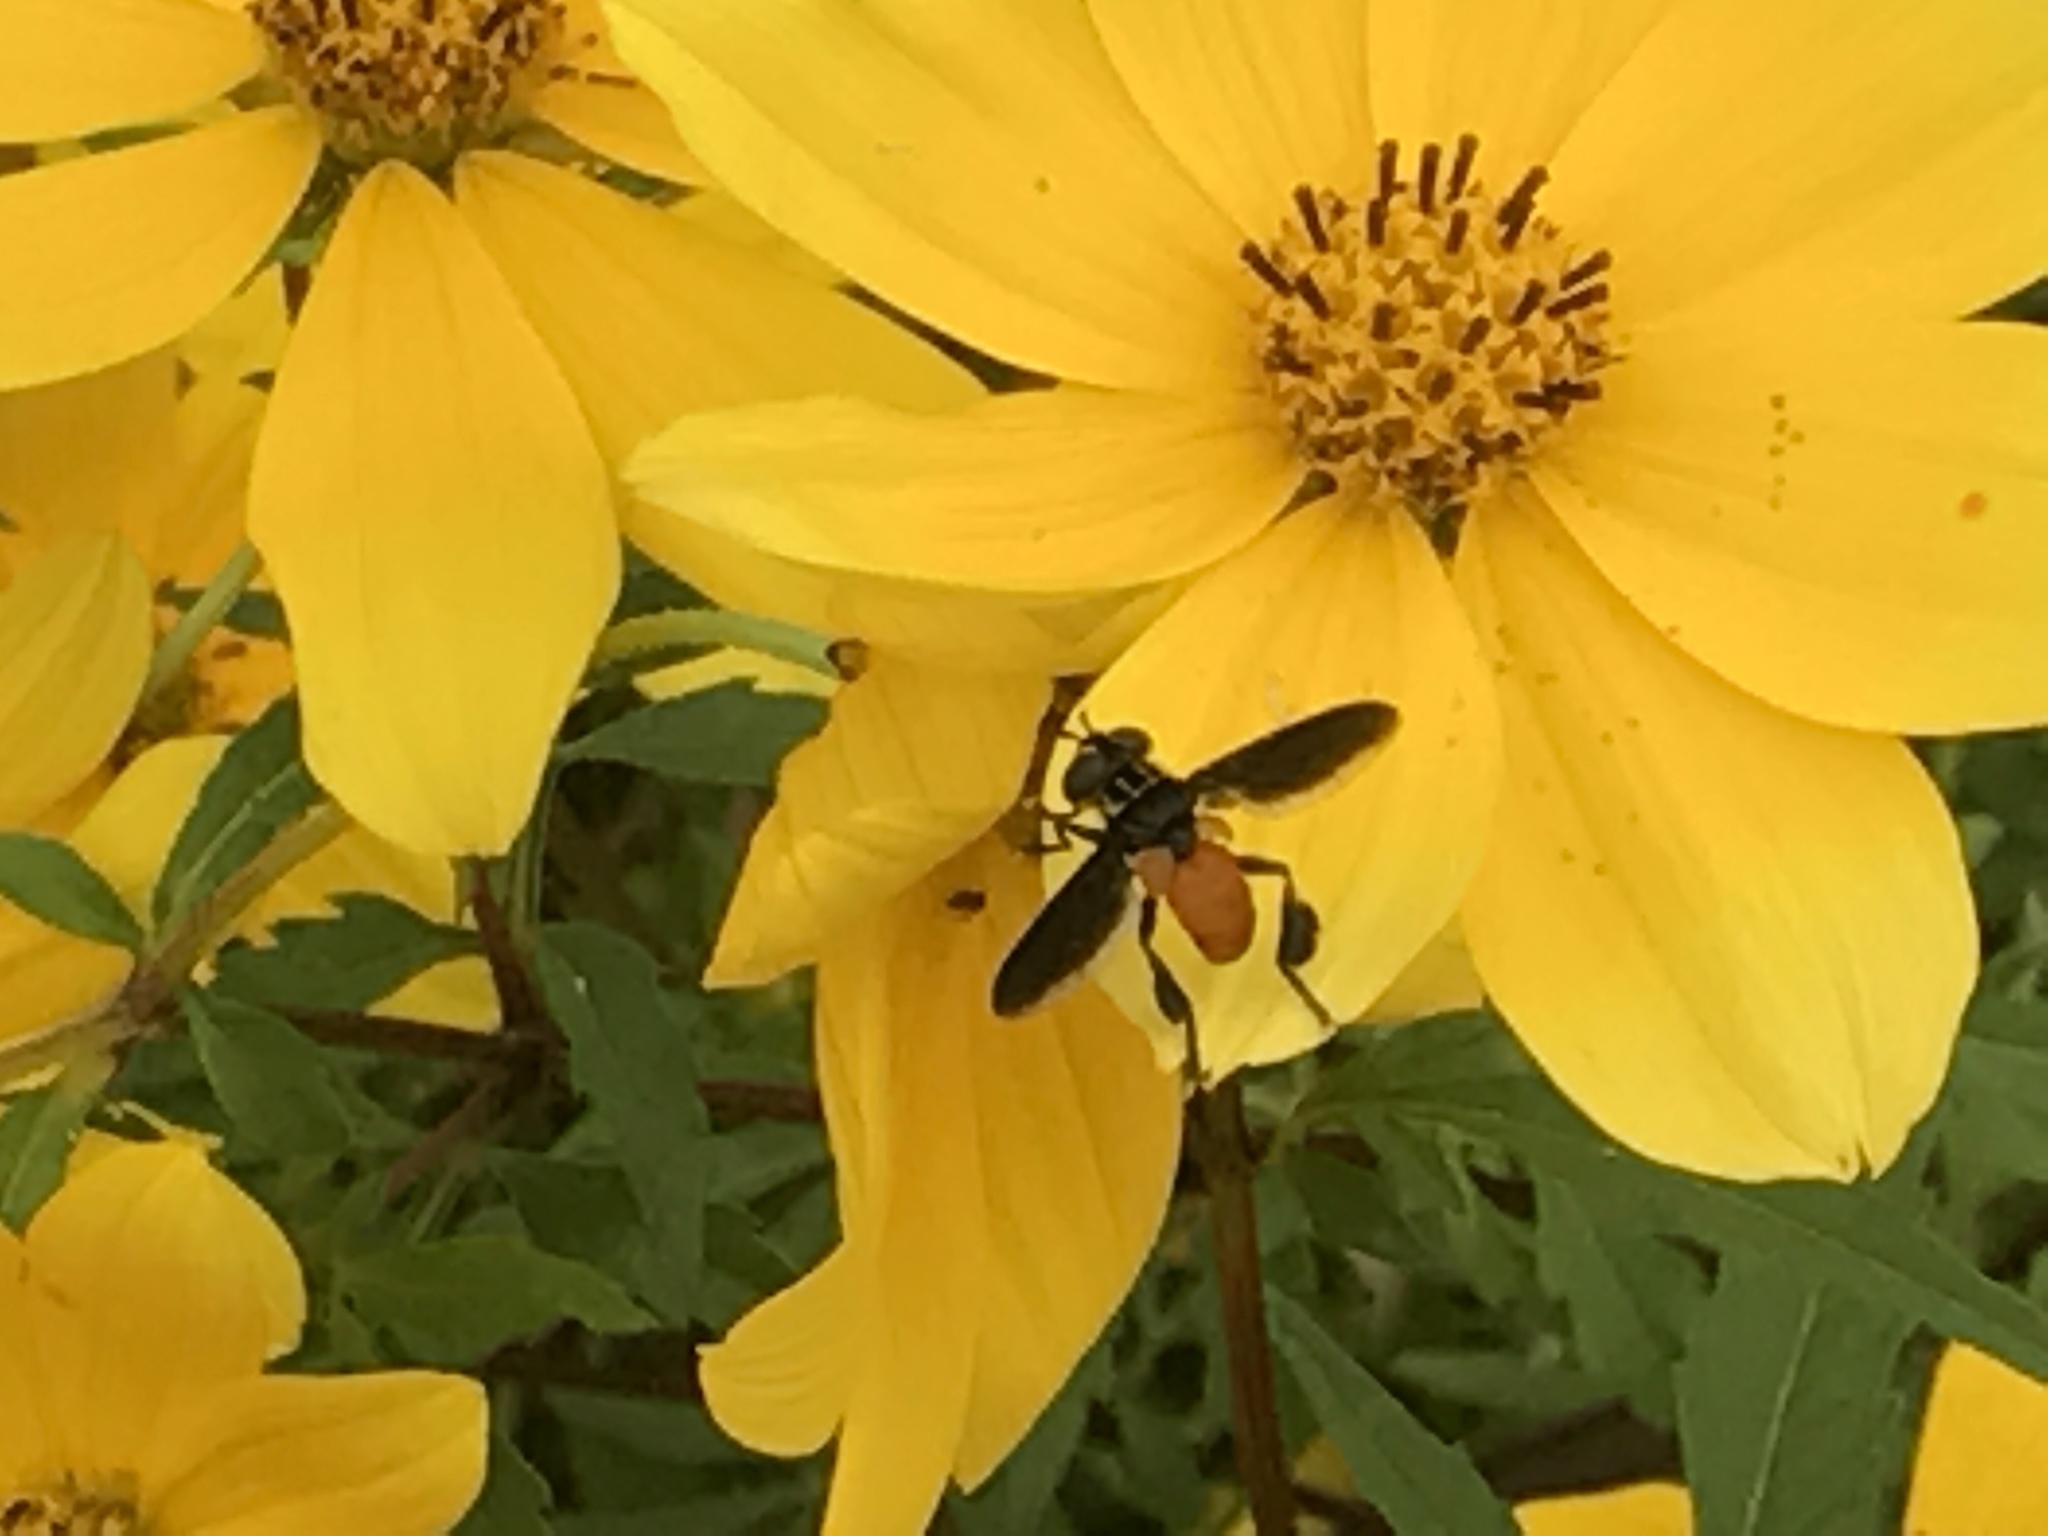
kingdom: Animalia
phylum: Arthropoda
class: Insecta
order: Diptera
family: Tachinidae
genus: Trichopoda
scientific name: Trichopoda pennipes
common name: Tachinid fly
